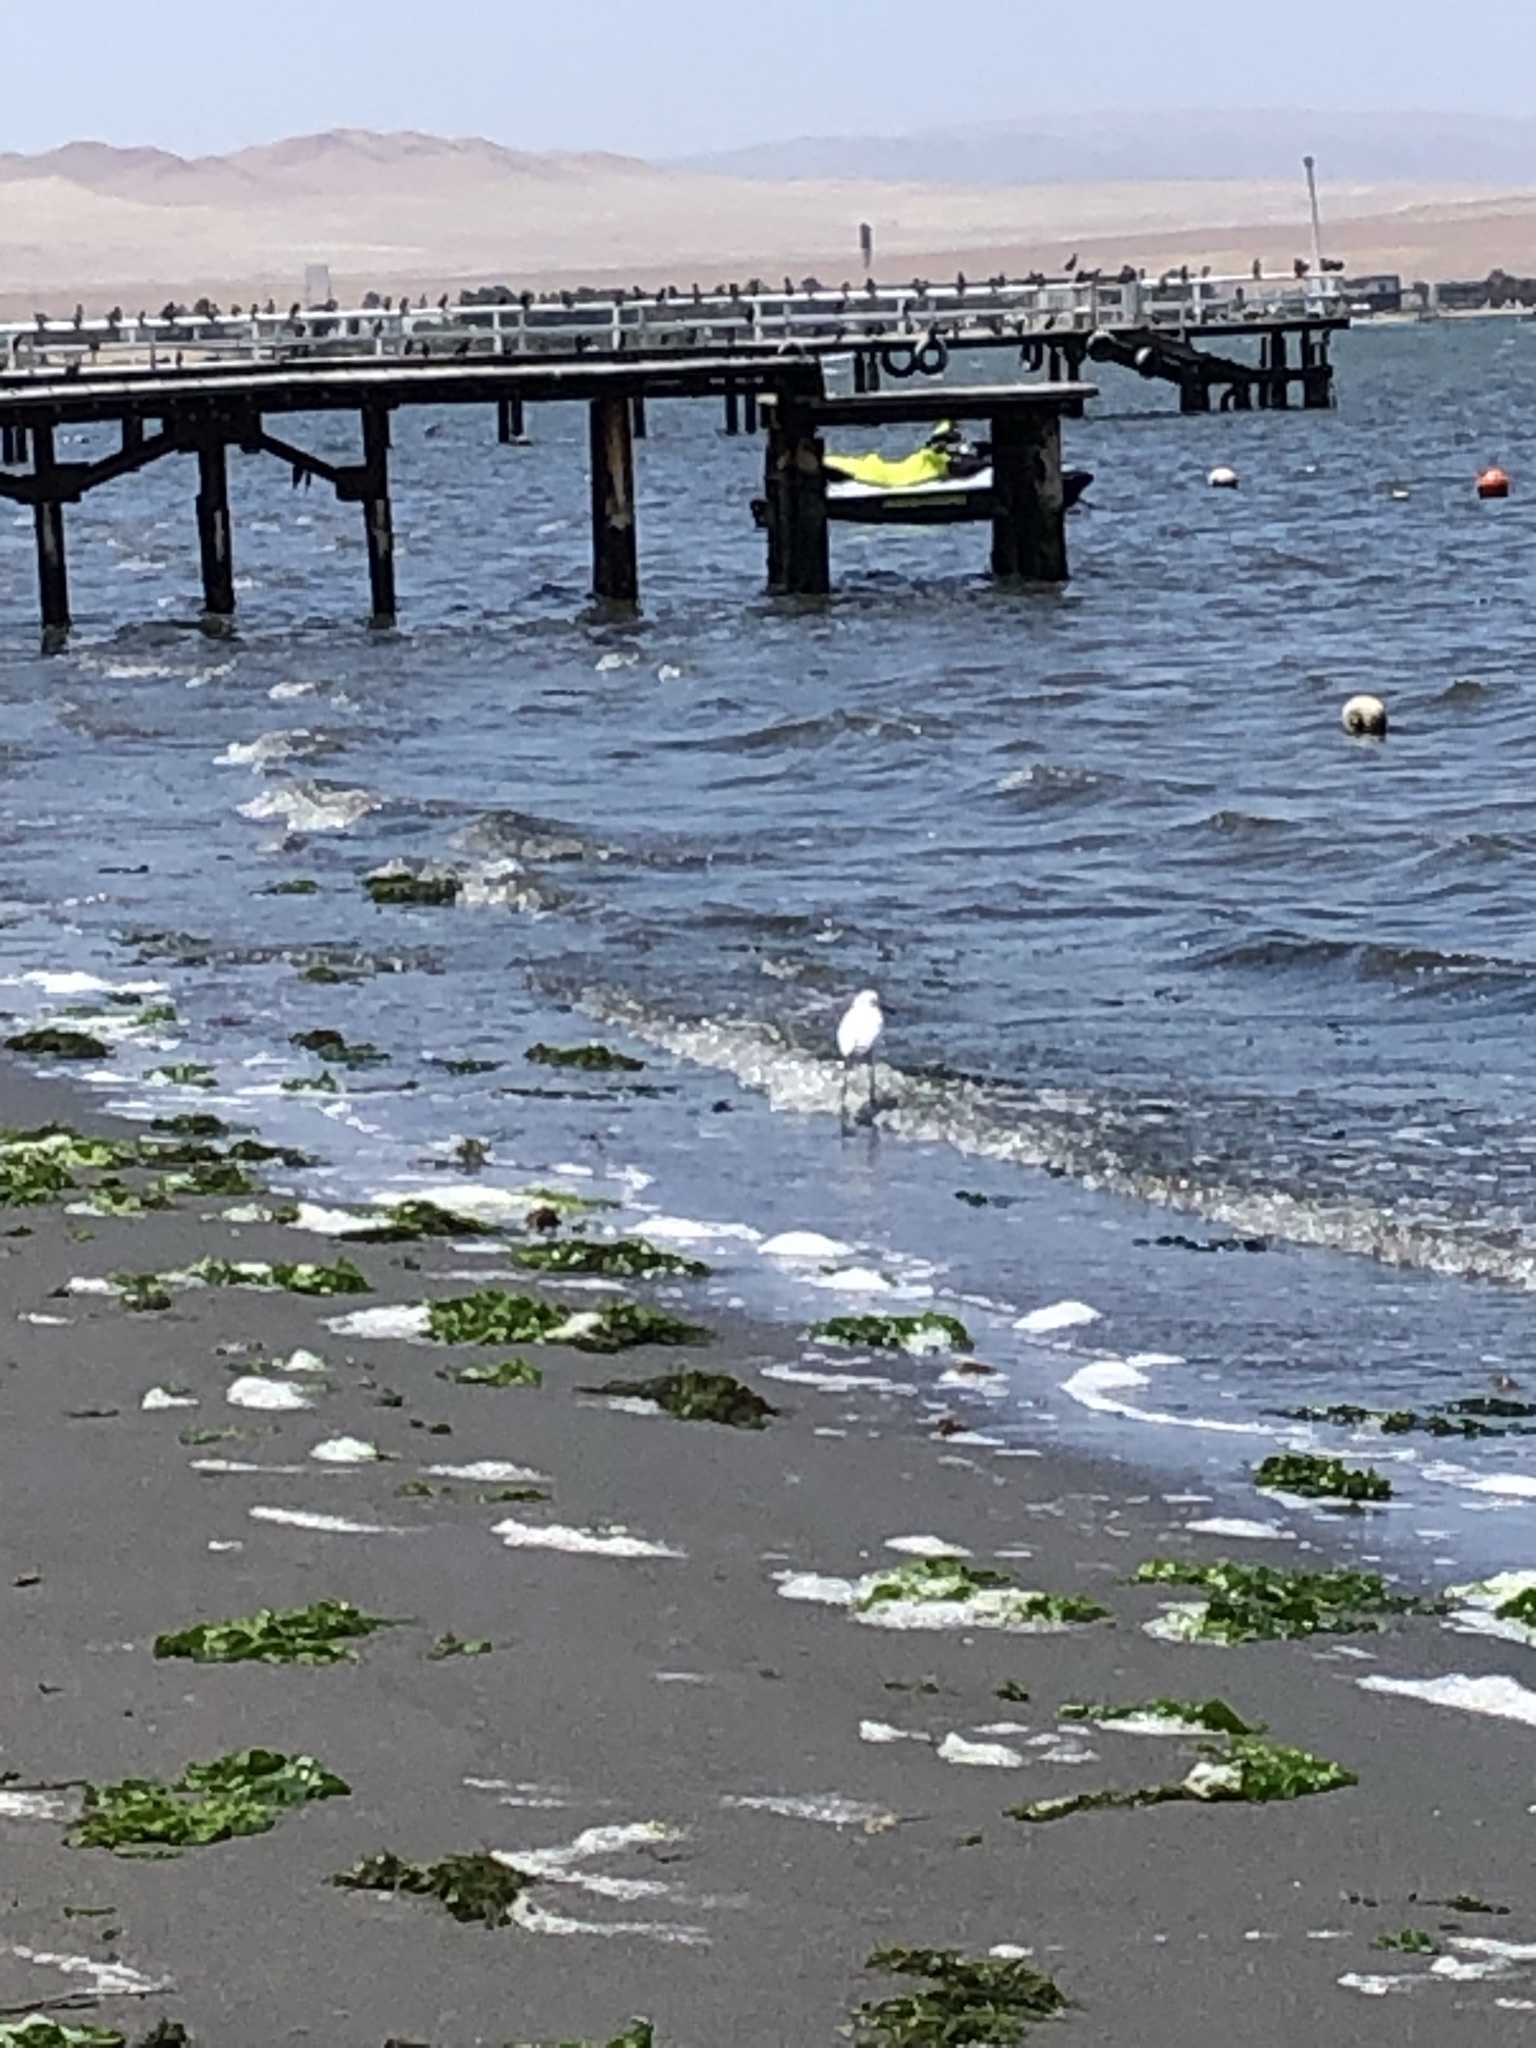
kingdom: Animalia
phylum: Chordata
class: Aves
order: Pelecaniformes
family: Ardeidae
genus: Egretta
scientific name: Egretta thula
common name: Snowy egret
